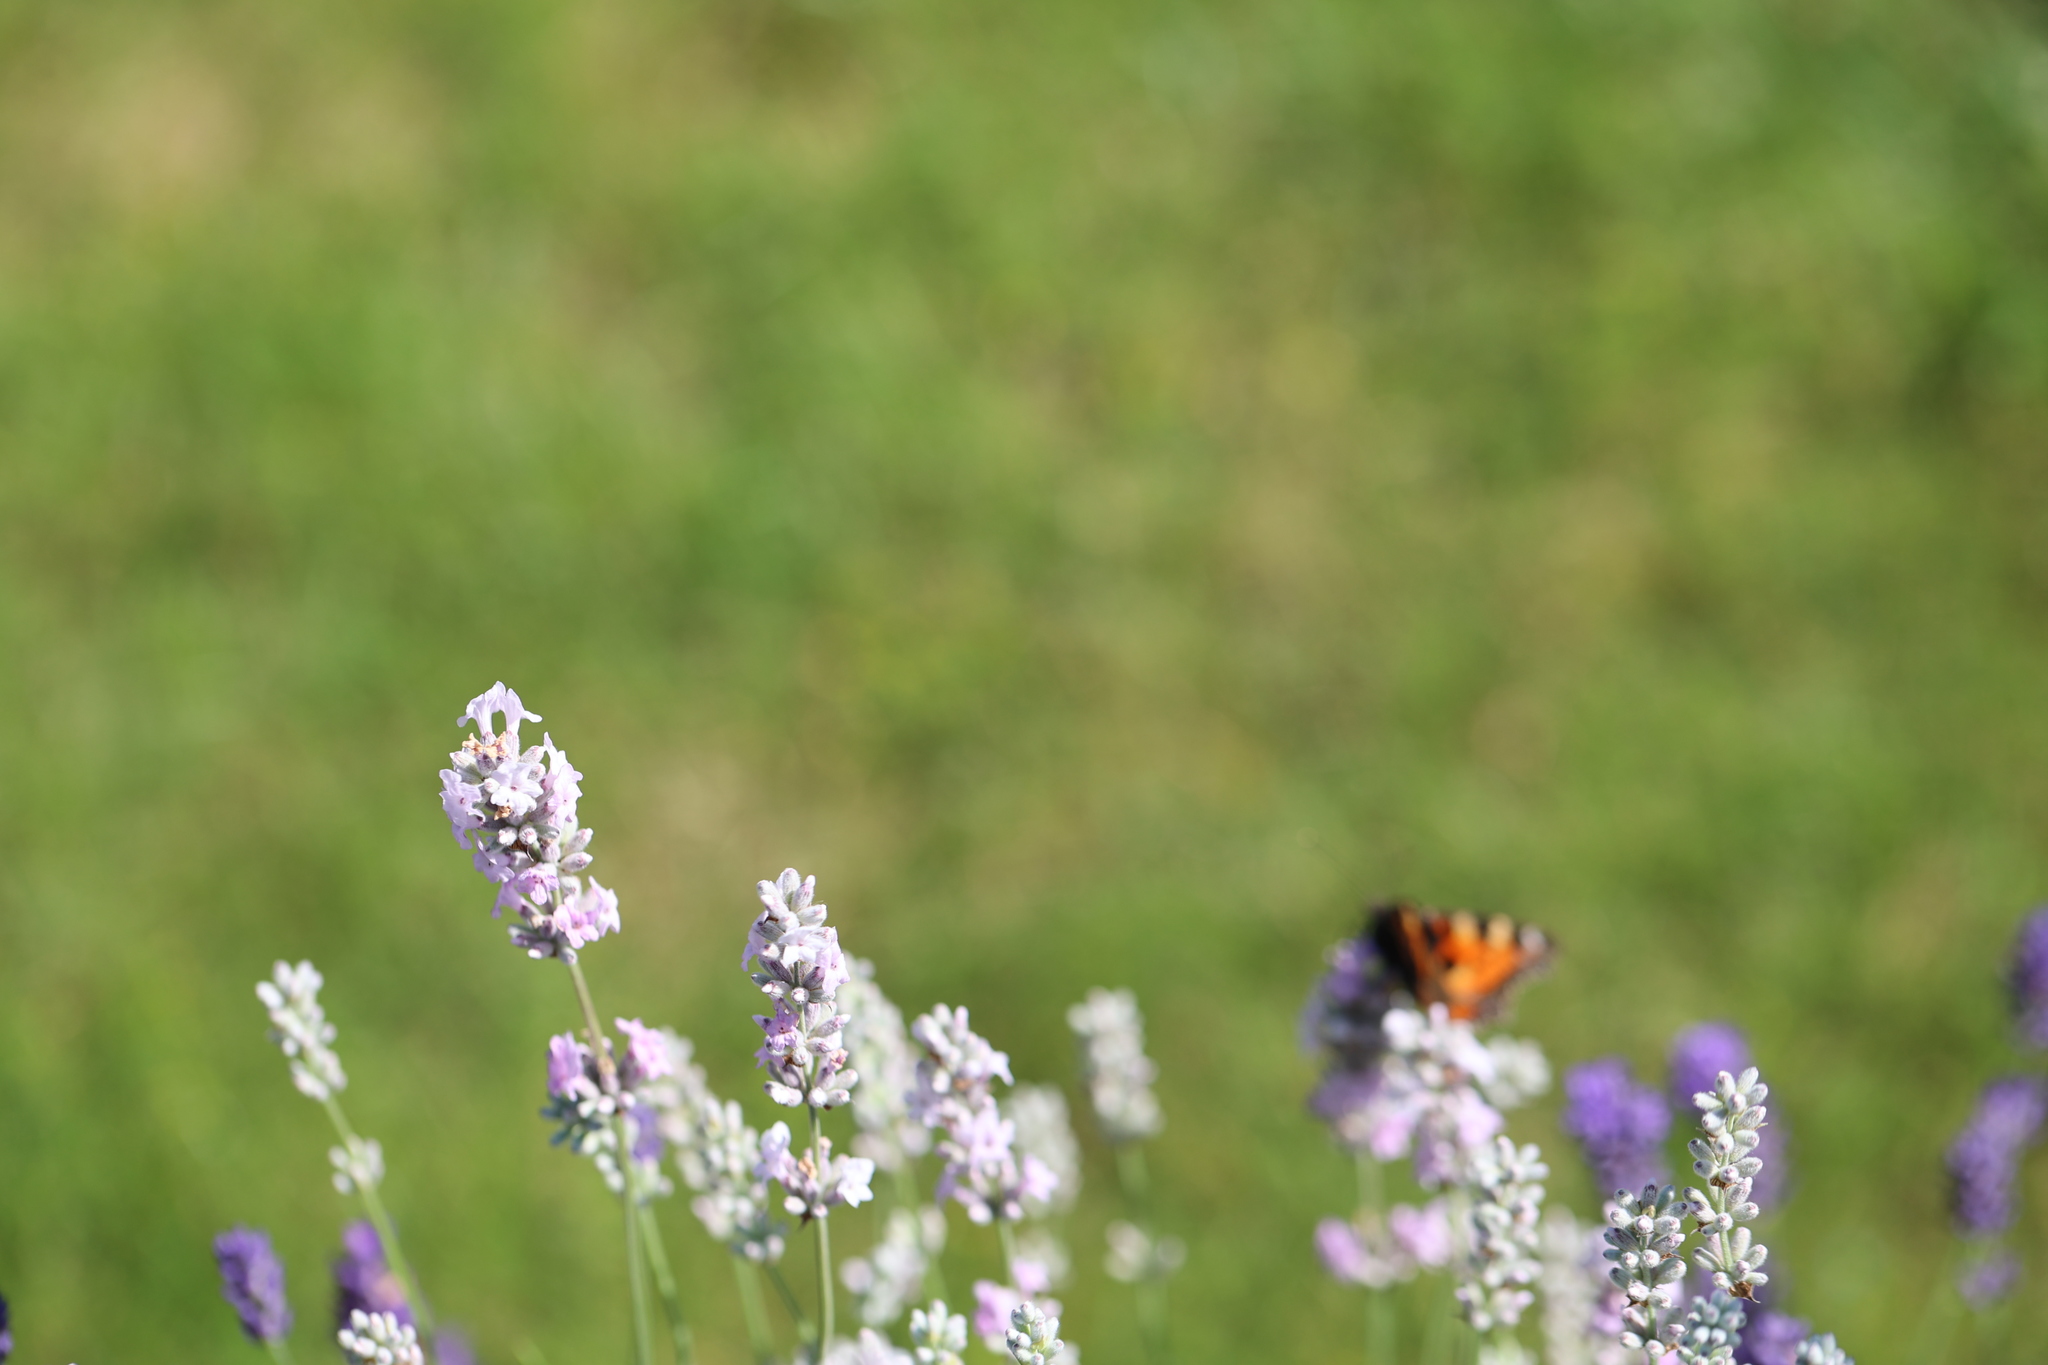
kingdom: Animalia
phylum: Arthropoda
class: Insecta
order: Lepidoptera
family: Nymphalidae
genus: Aglais
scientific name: Aglais urticae
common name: Small tortoiseshell
